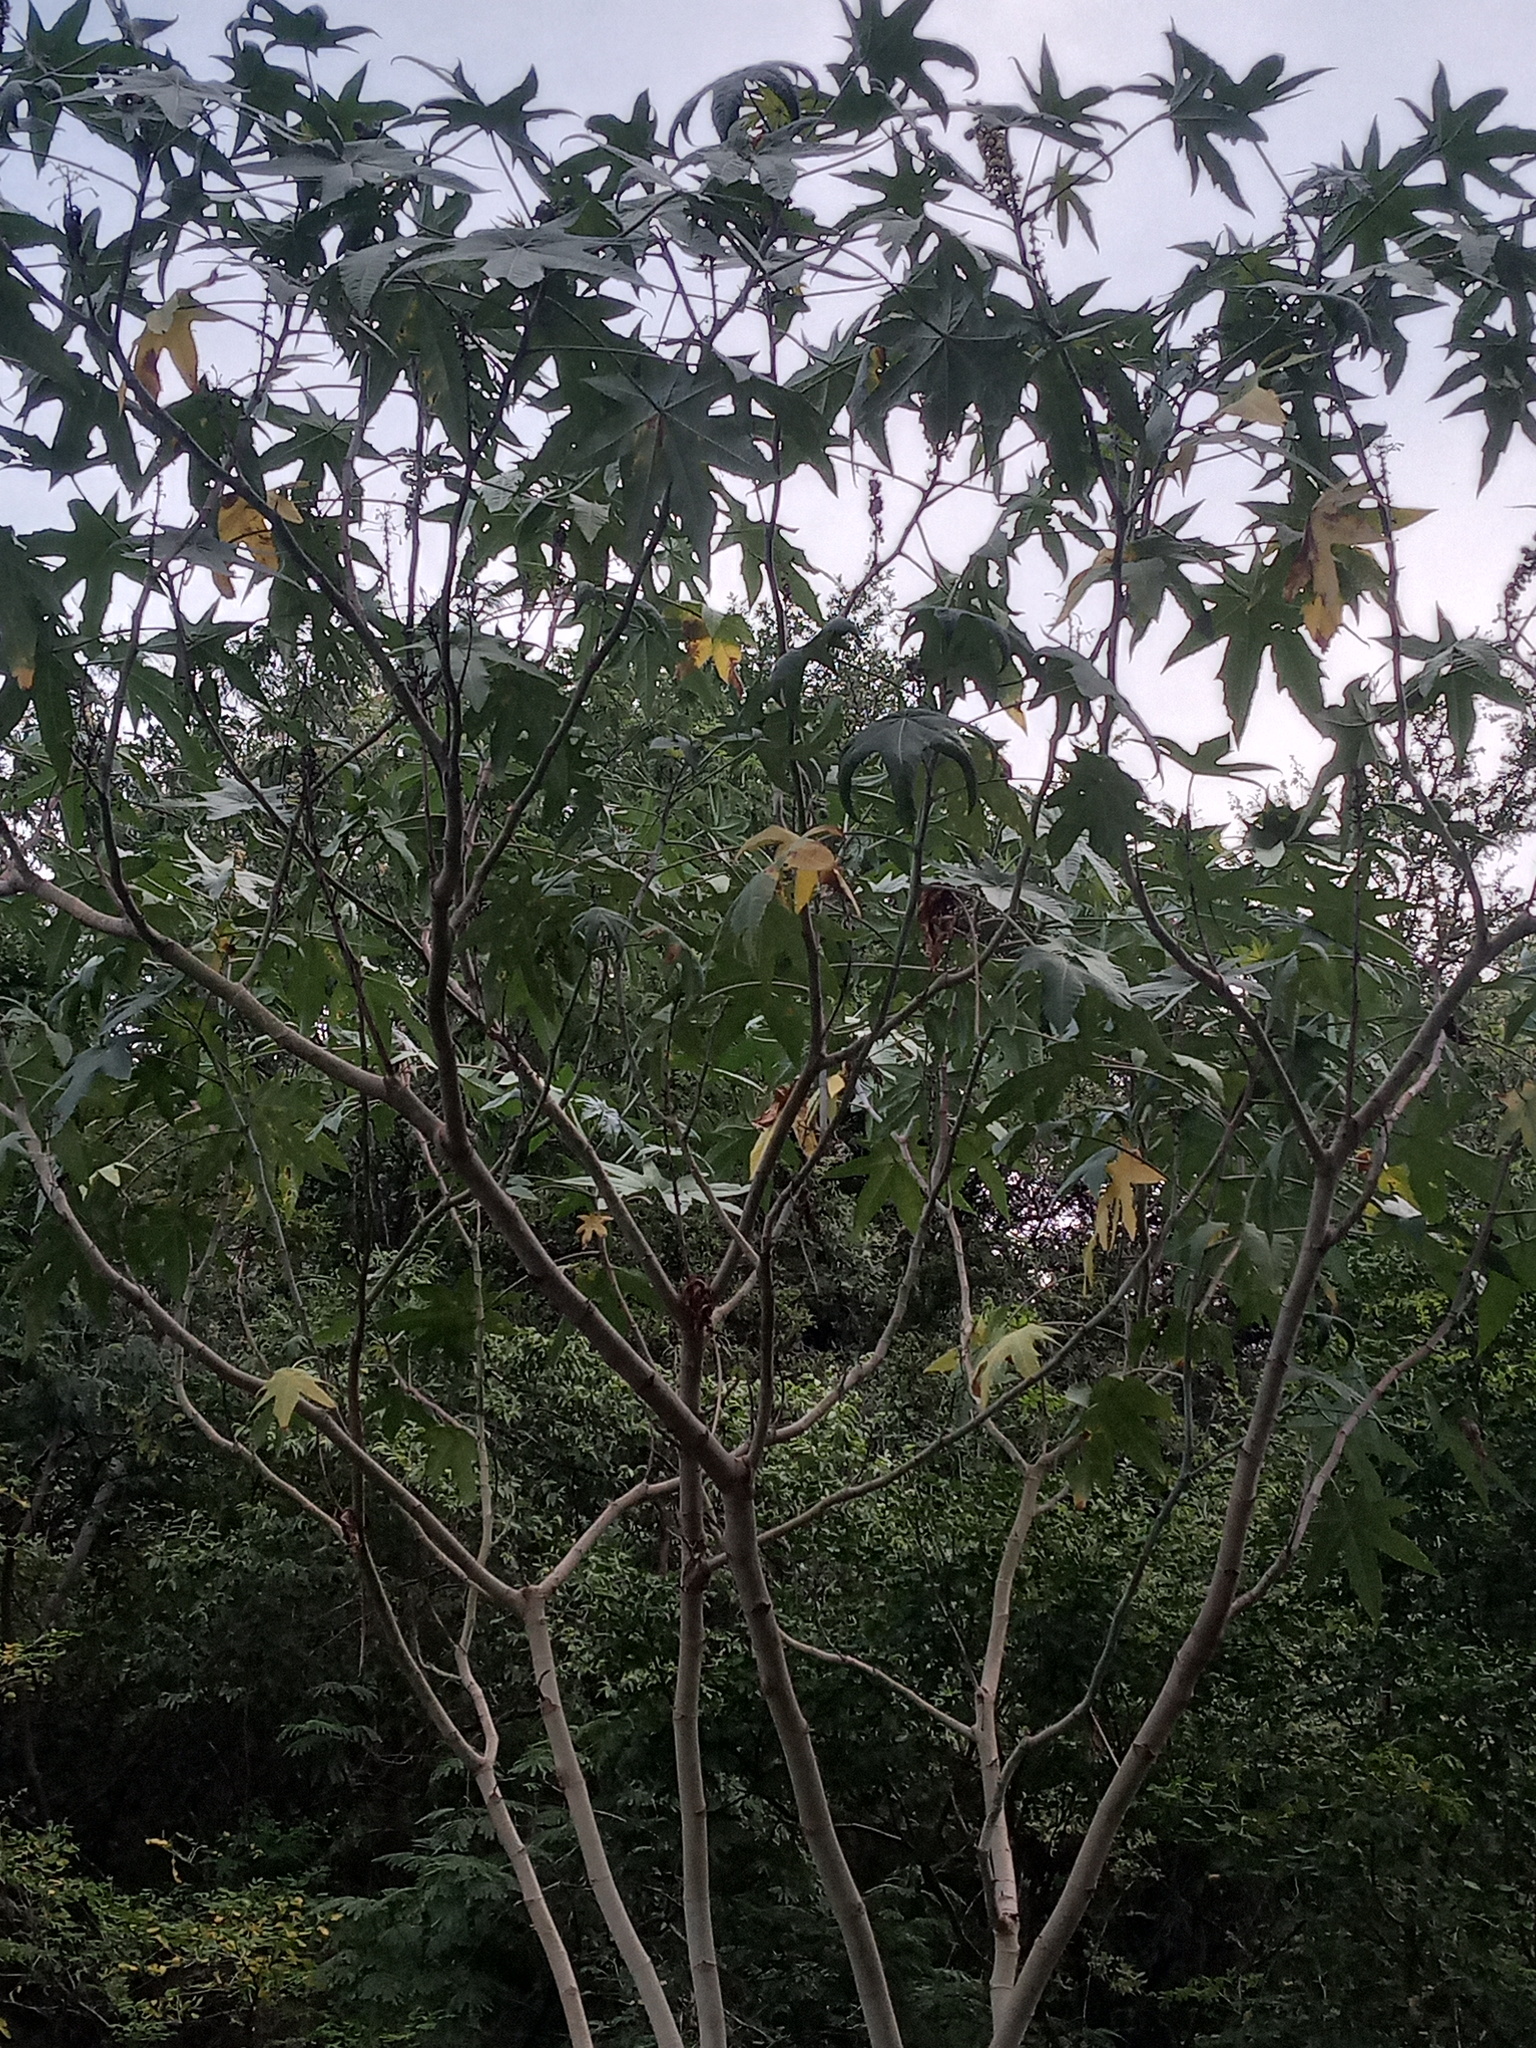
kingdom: Plantae
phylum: Tracheophyta
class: Magnoliopsida
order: Malpighiales
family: Euphorbiaceae
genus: Ricinus
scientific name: Ricinus communis
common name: Castor-oil-plant
